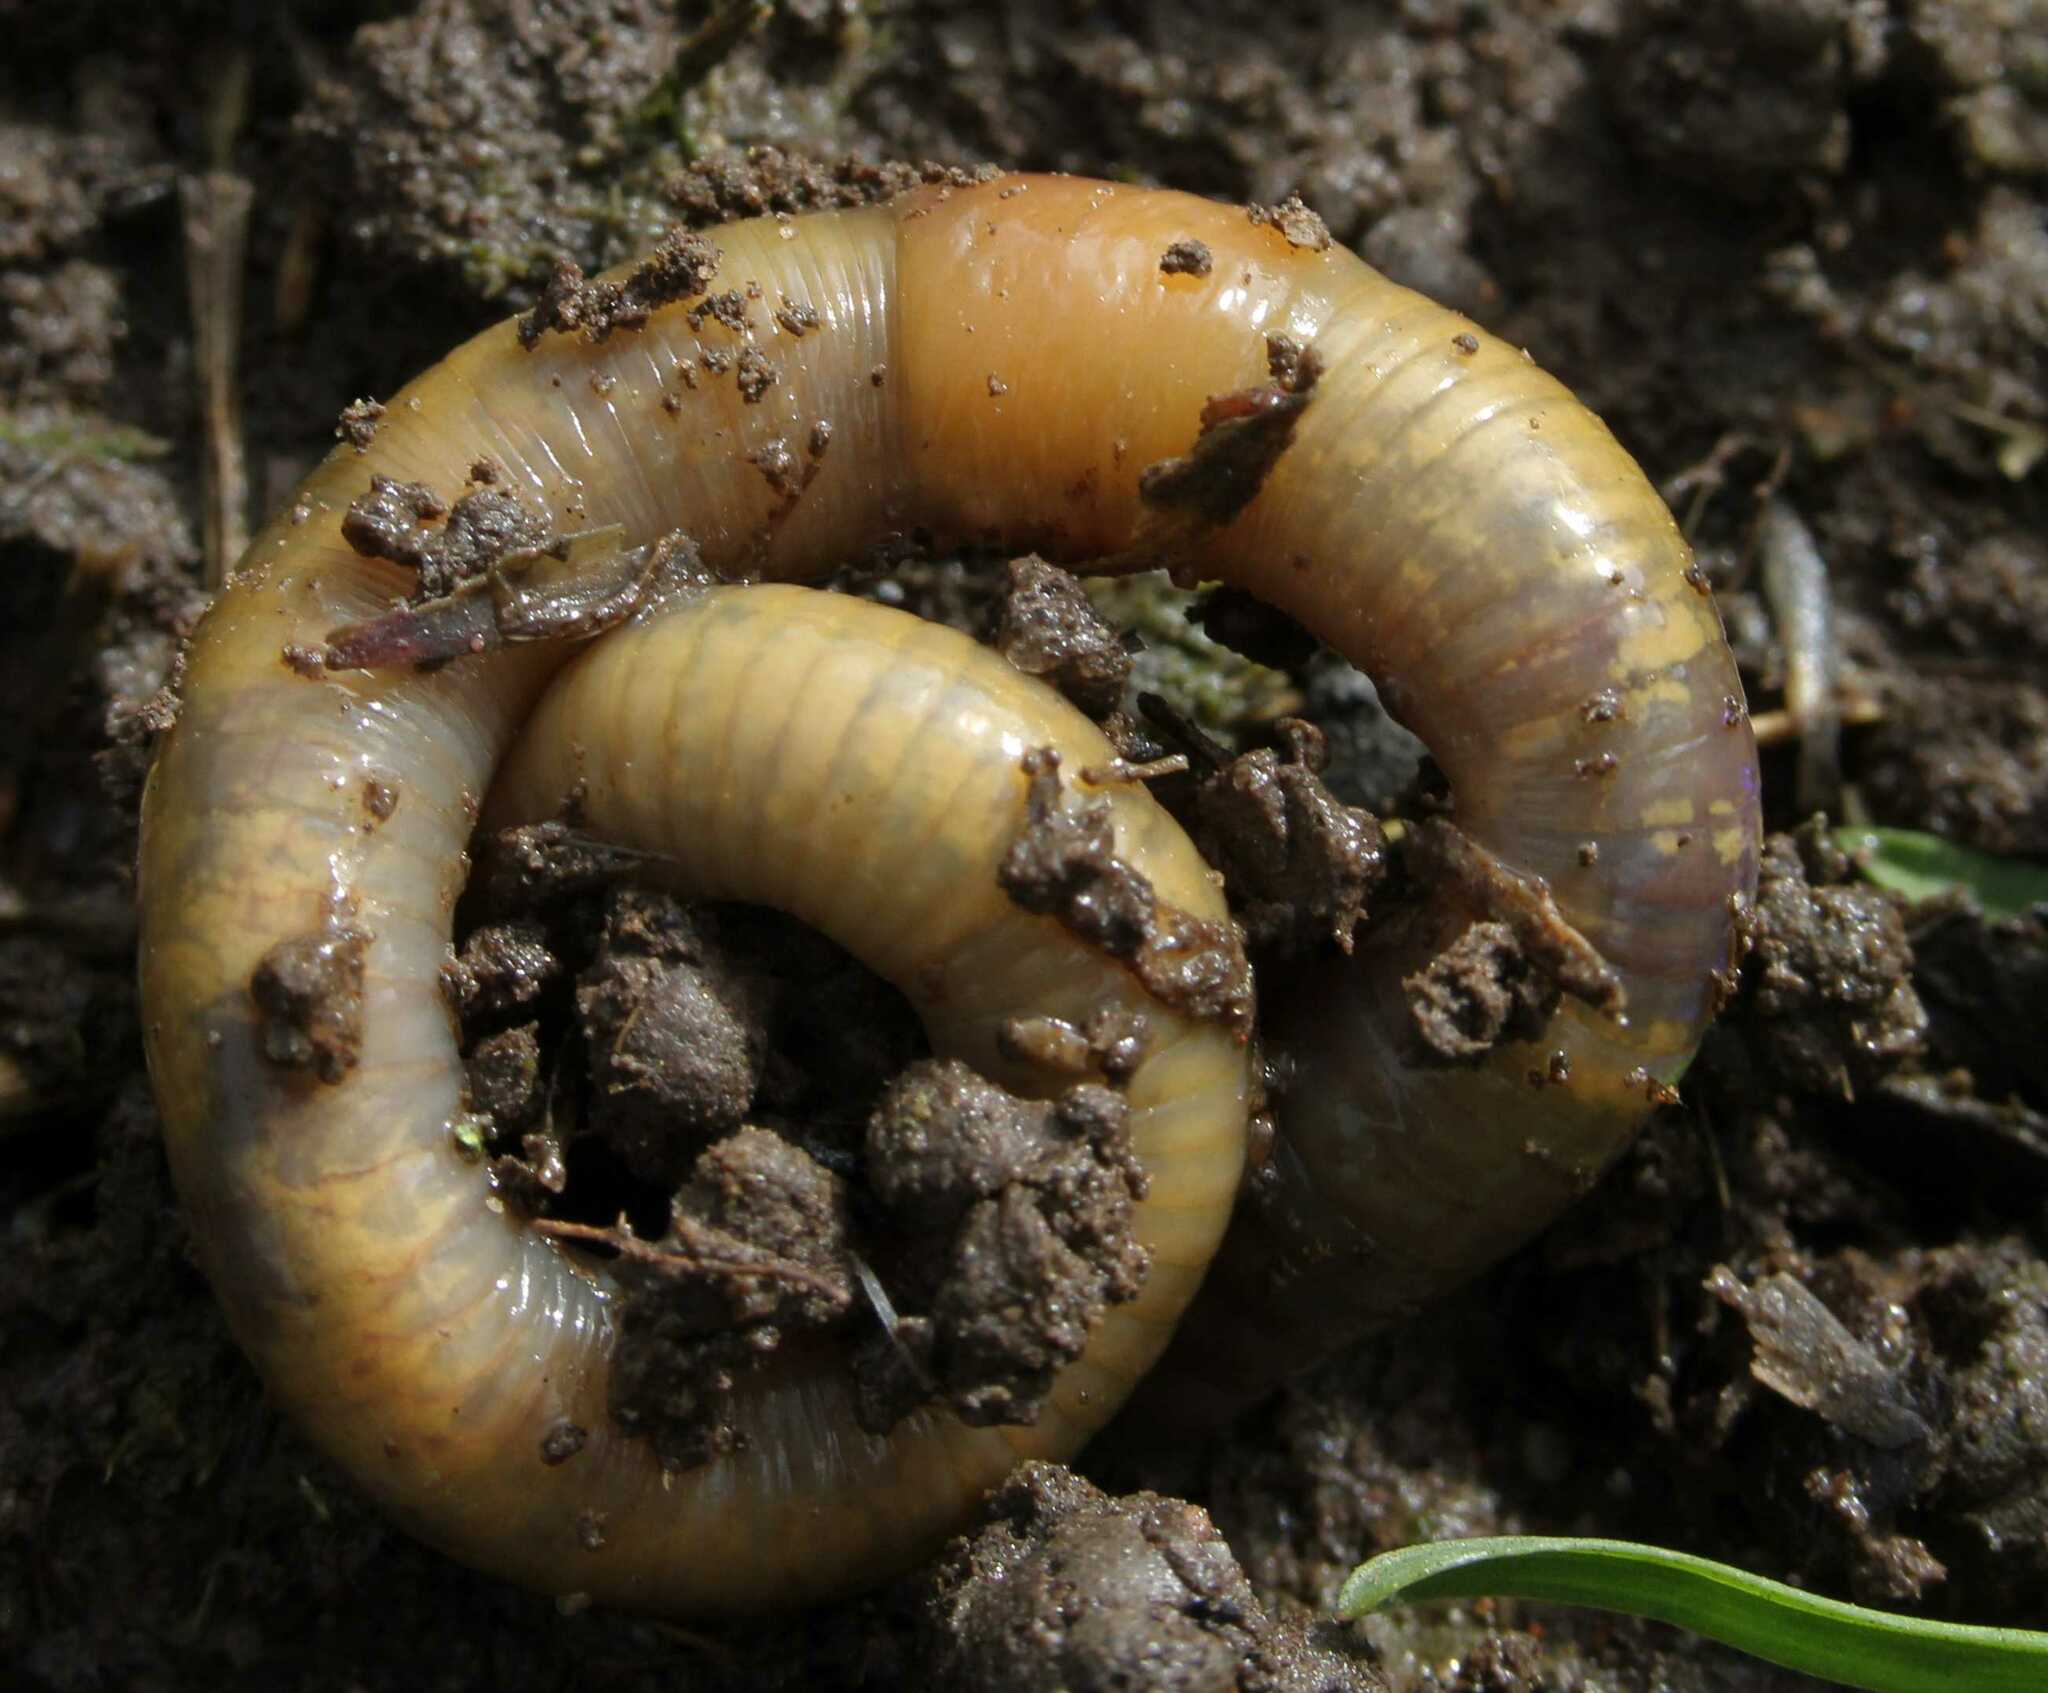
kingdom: Animalia
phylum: Annelida
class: Clitellata
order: Crassiclitellata
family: Lumbricidae
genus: Allolobophora
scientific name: Allolobophora chlorotica
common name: Green worm
